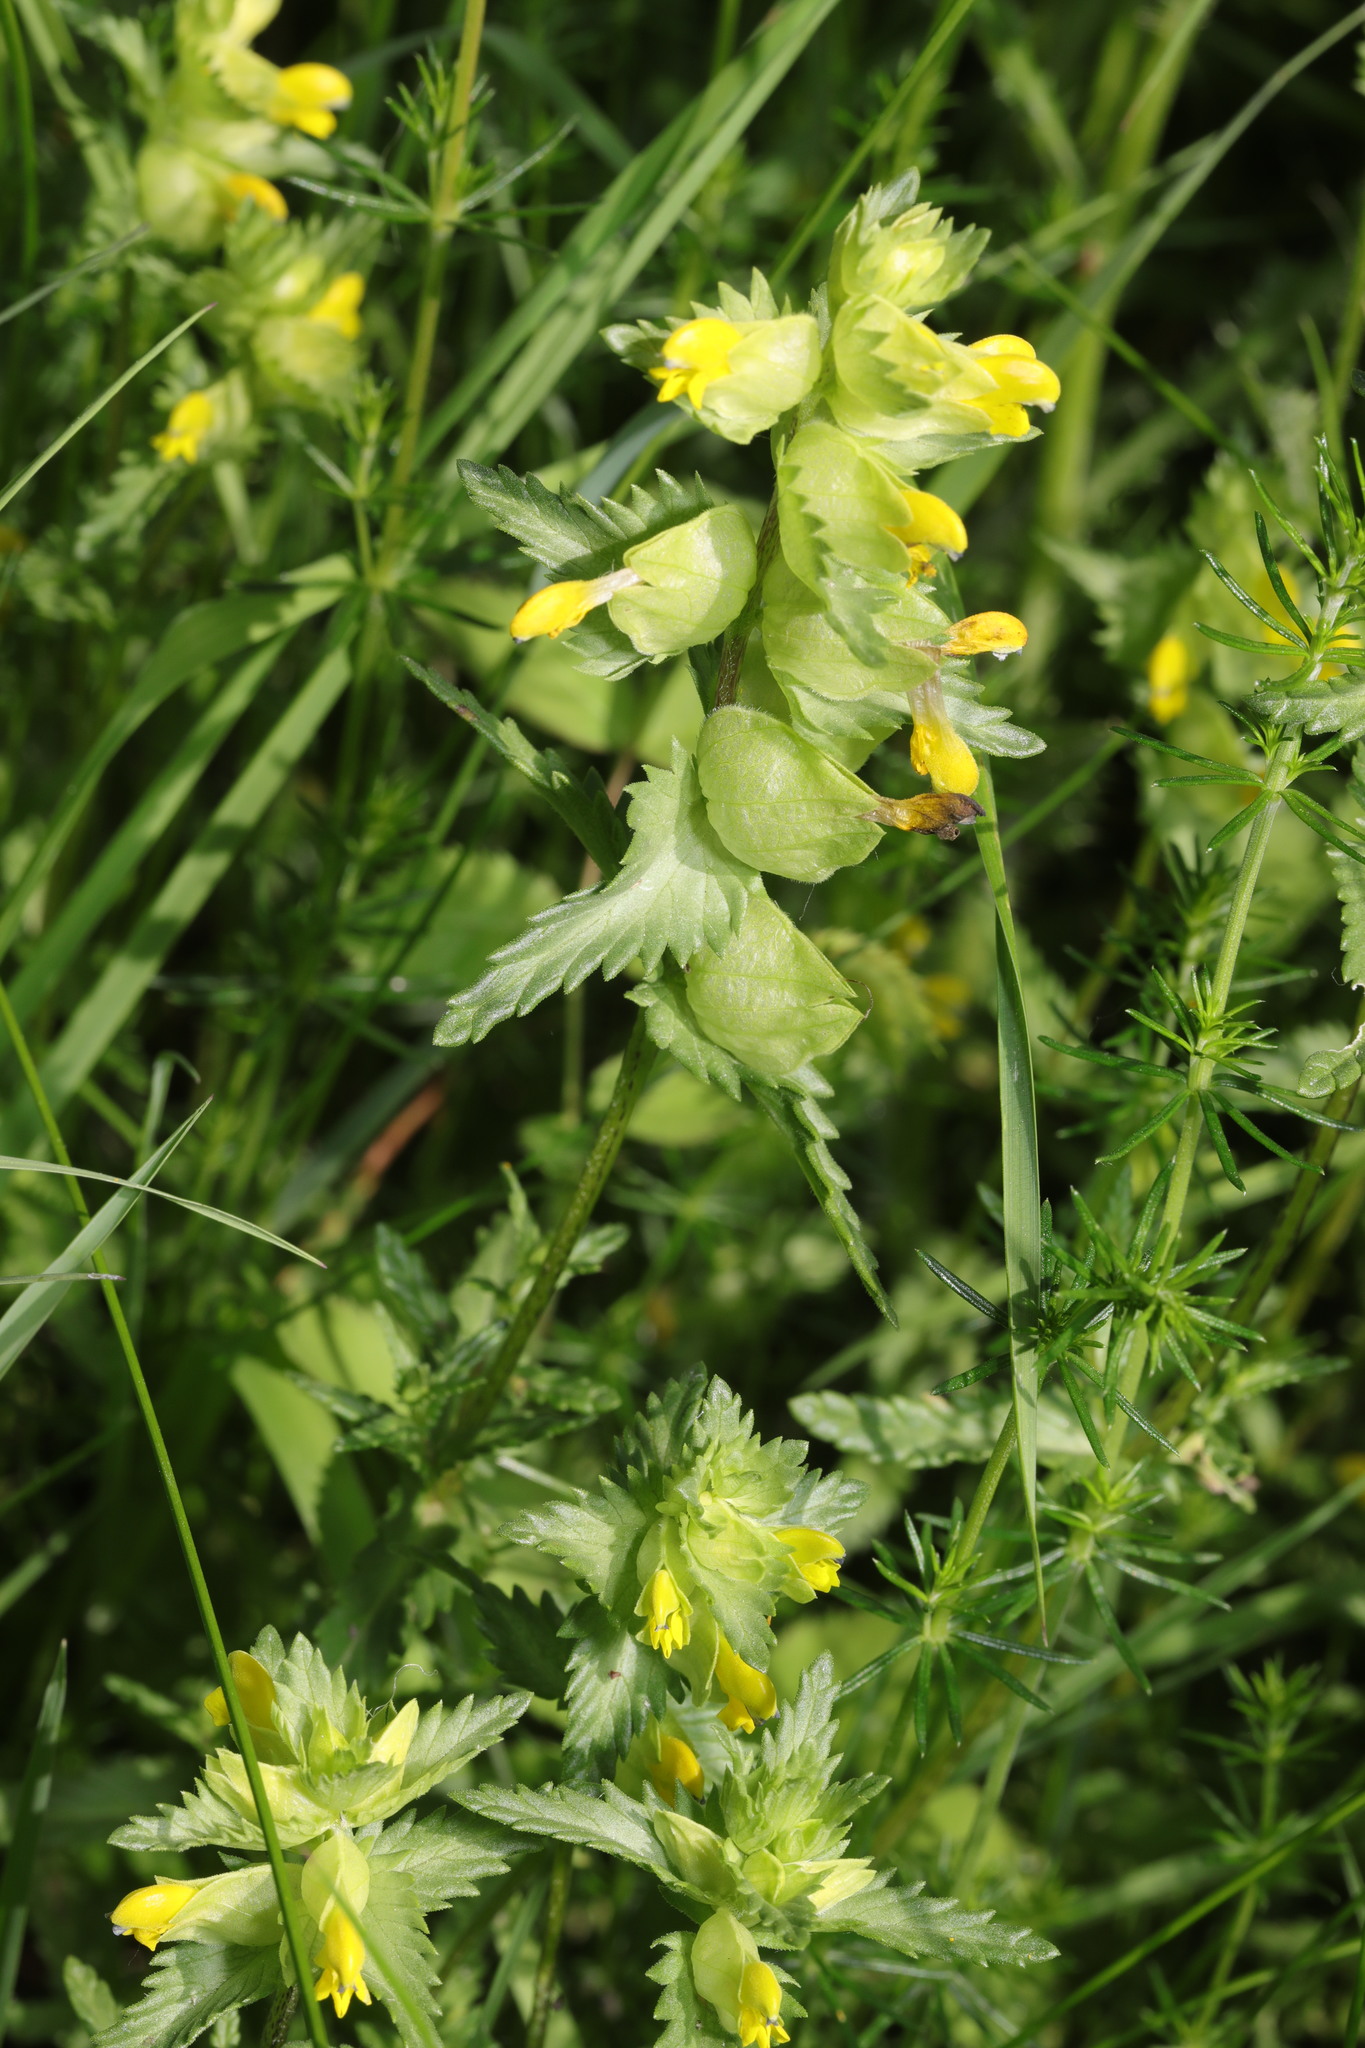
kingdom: Plantae
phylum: Tracheophyta
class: Magnoliopsida
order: Lamiales
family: Orobanchaceae
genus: Rhinanthus
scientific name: Rhinanthus minor
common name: Yellow-rattle
